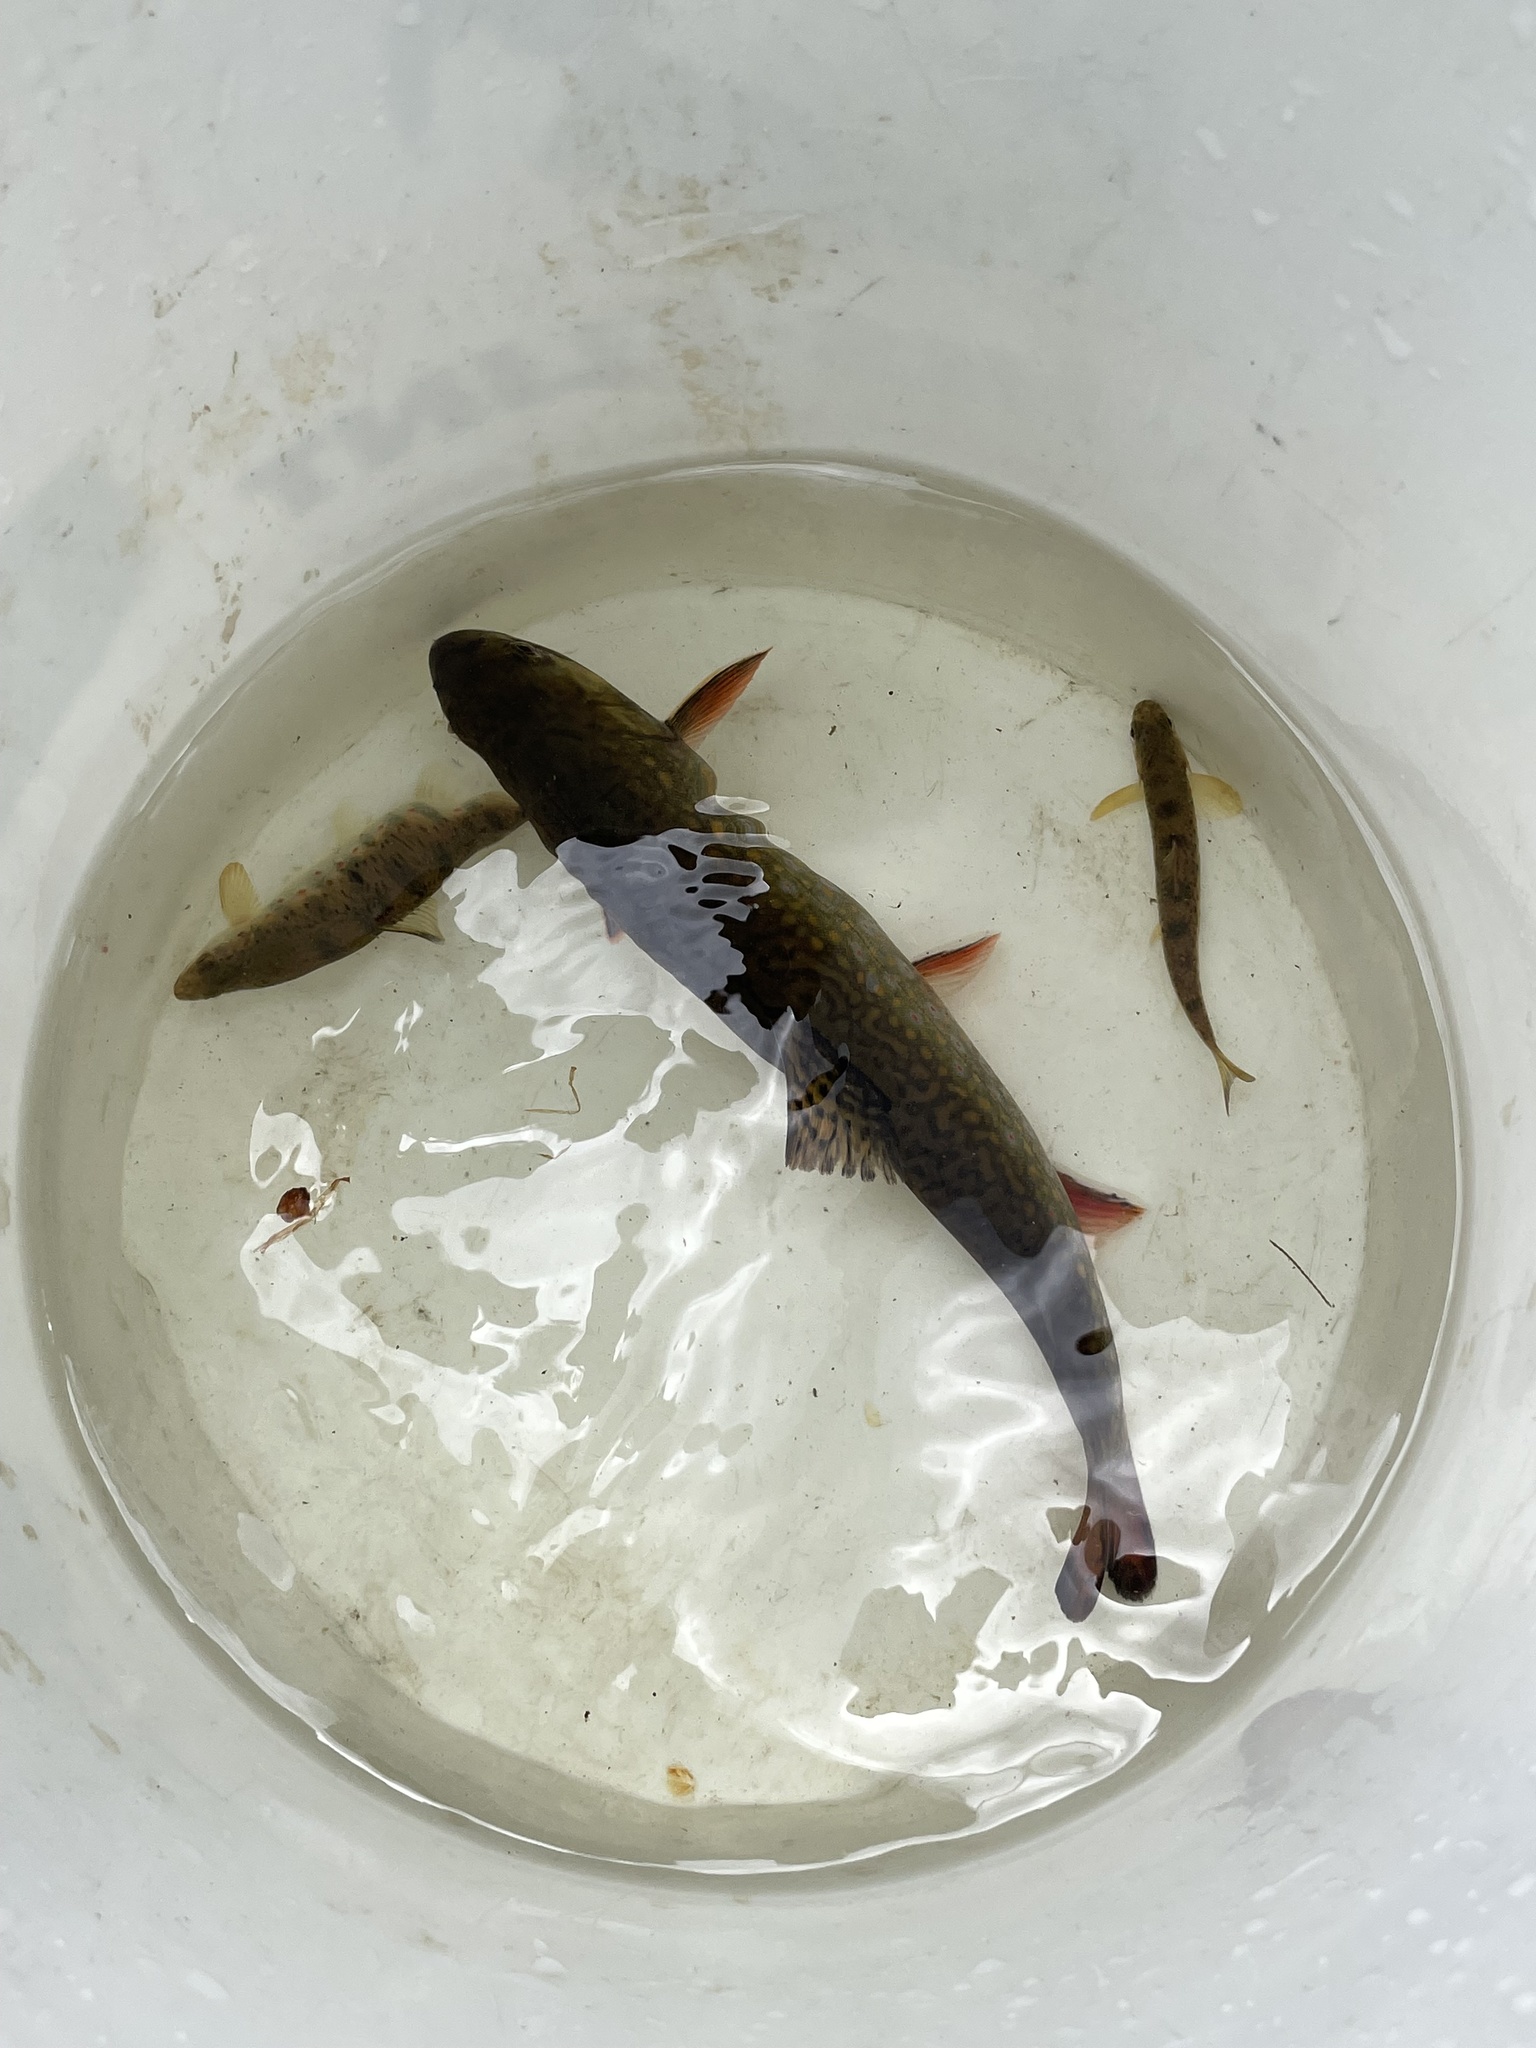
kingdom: Animalia
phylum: Chordata
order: Salmoniformes
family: Salmonidae
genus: Salvelinus
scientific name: Salvelinus fontinalis
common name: Brook trout
